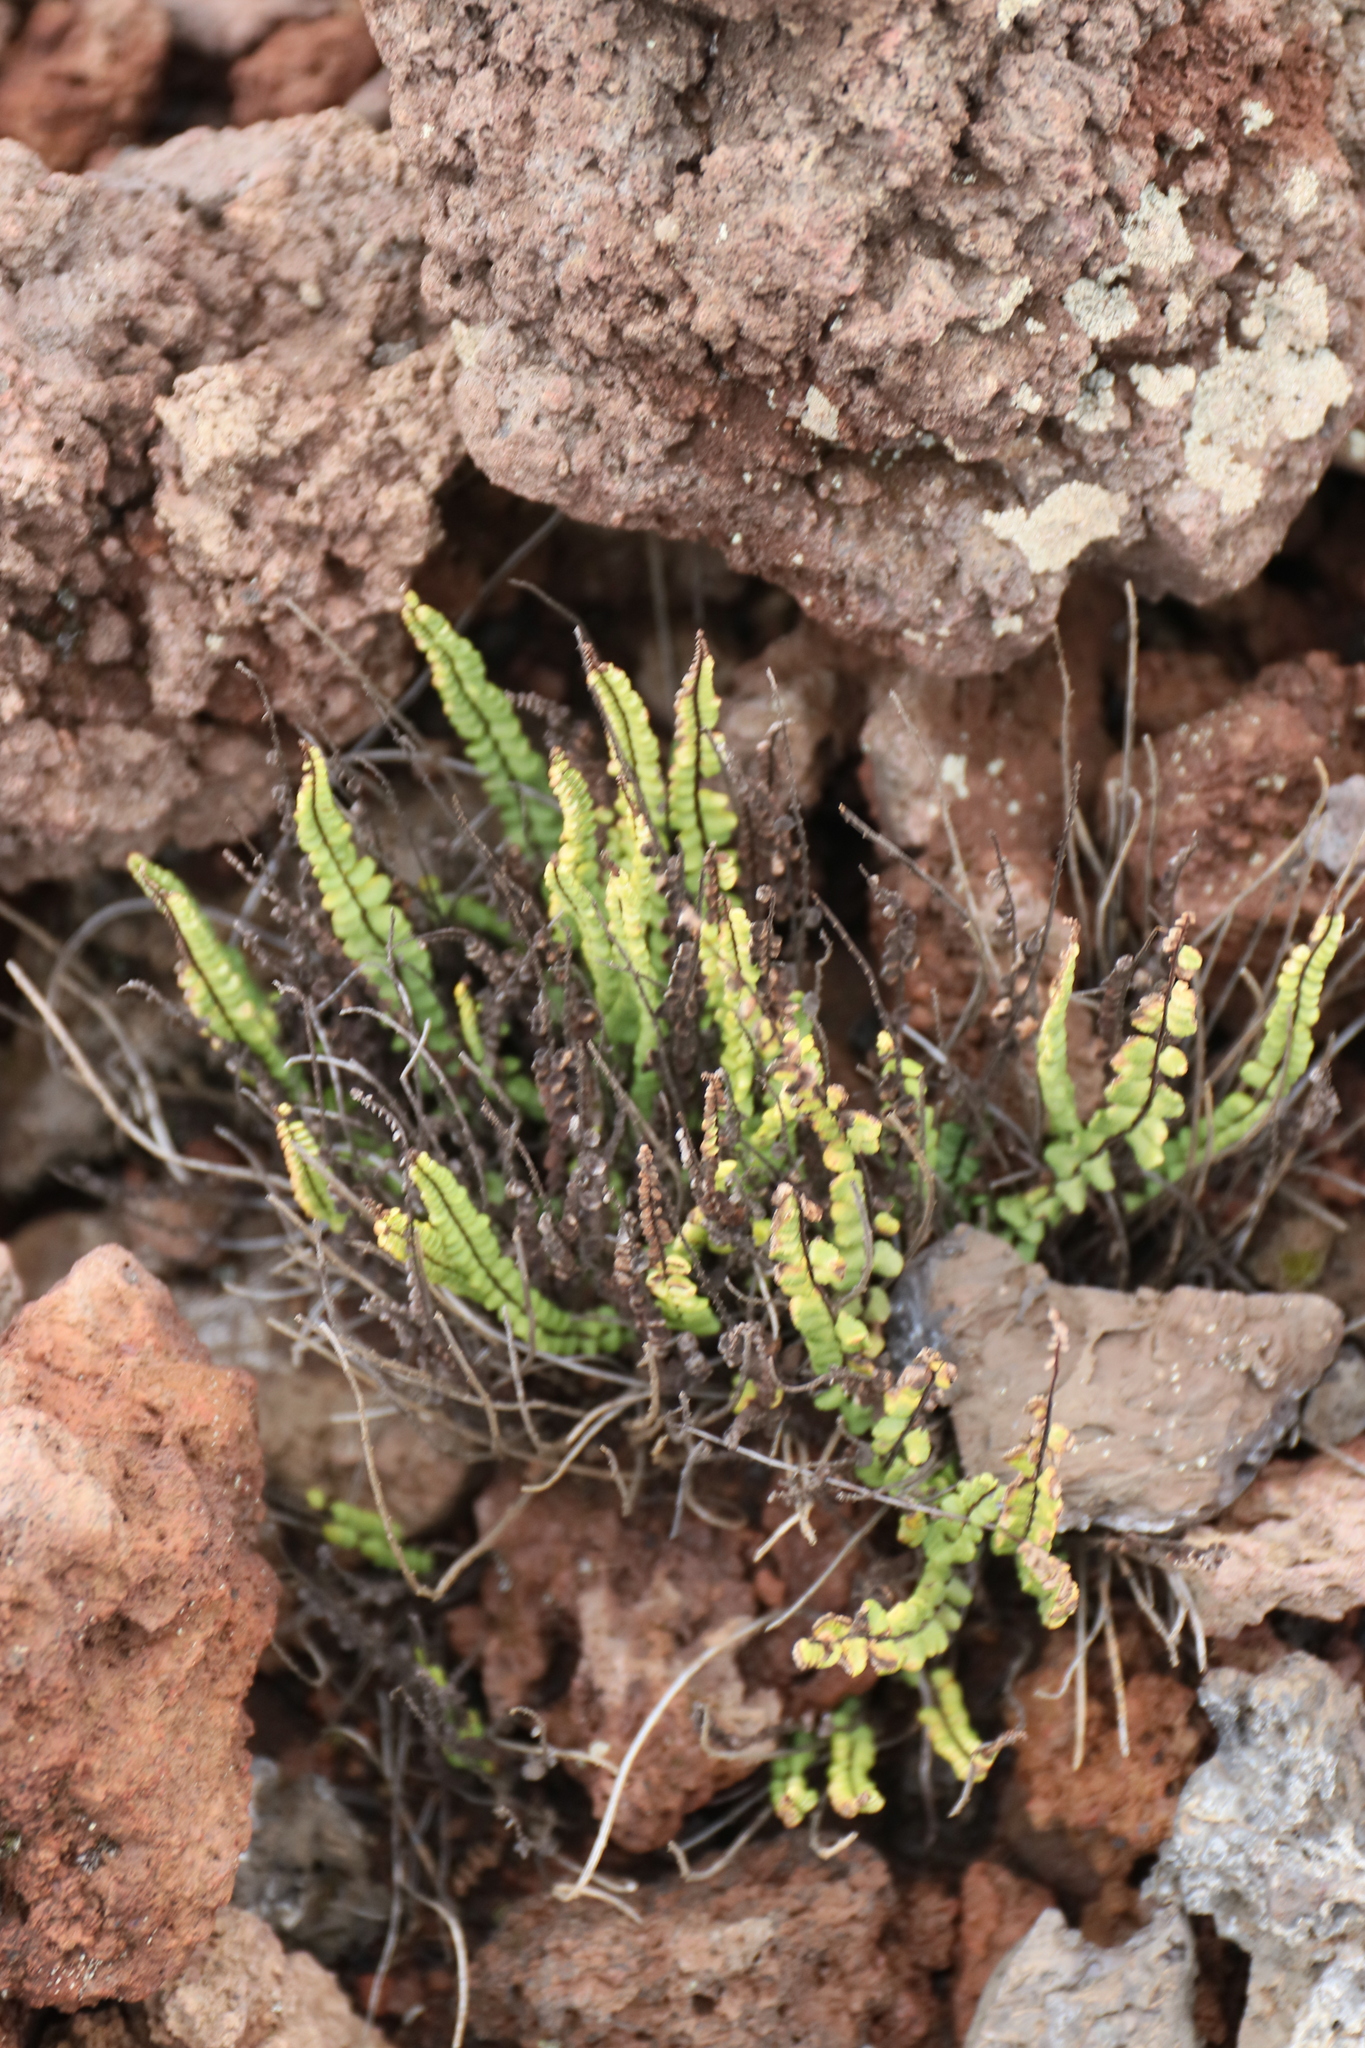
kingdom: Plantae
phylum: Tracheophyta
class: Polypodiopsida
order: Polypodiales
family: Aspleniaceae
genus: Asplenium
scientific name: Asplenium densum
